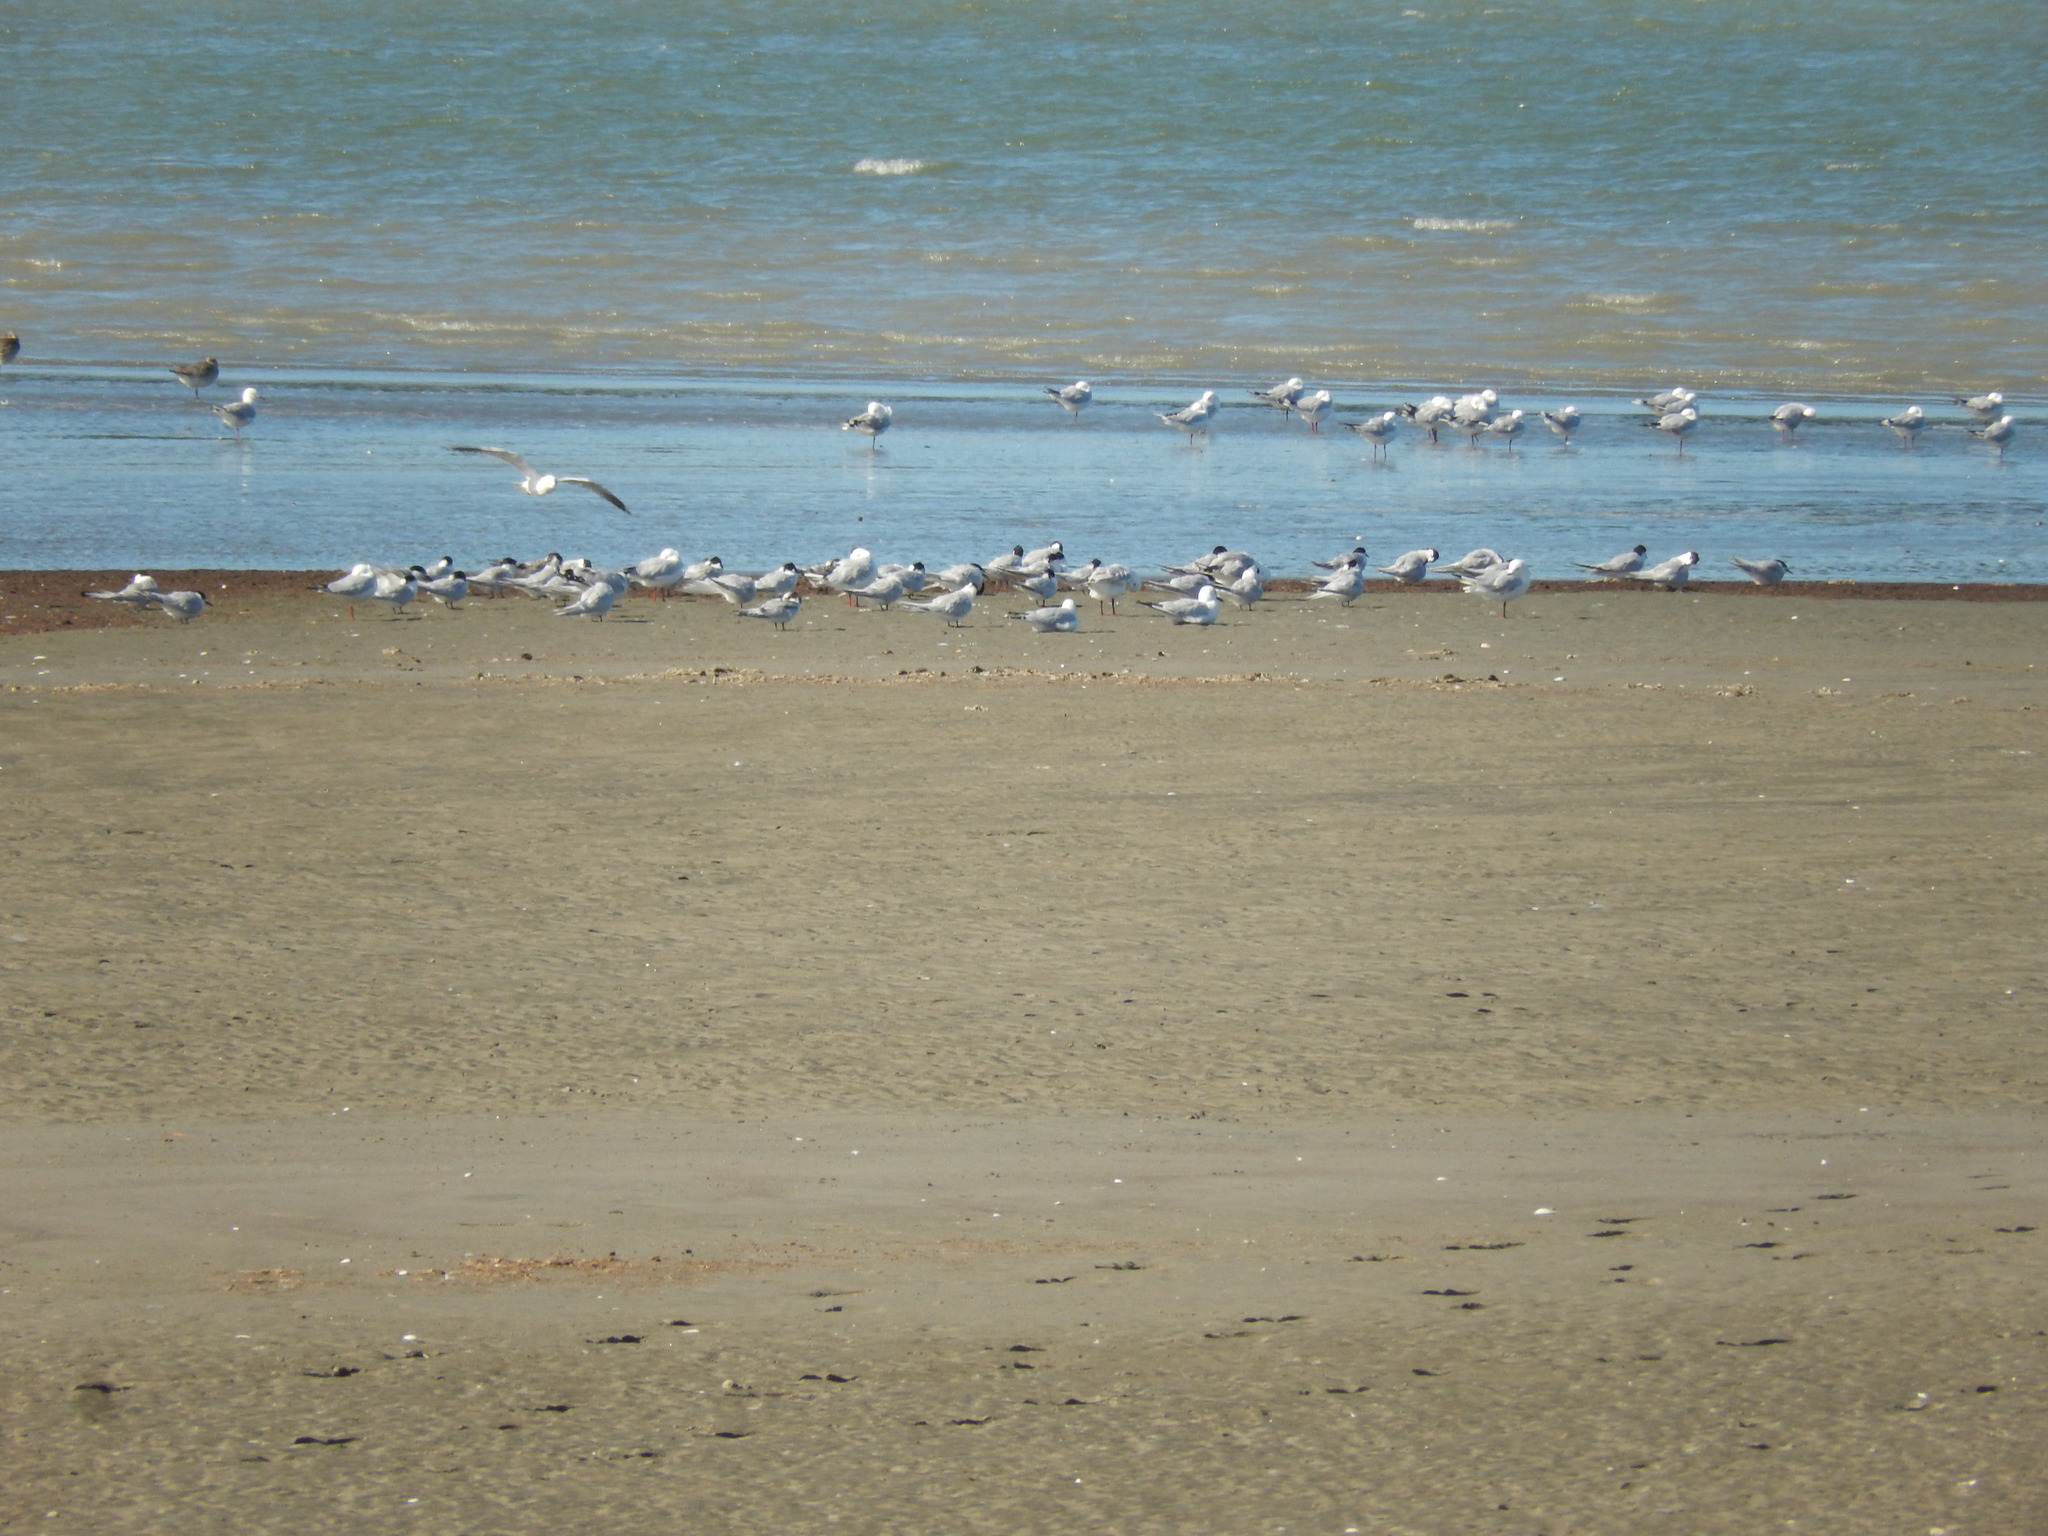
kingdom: Animalia
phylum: Chordata
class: Aves
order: Charadriiformes
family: Laridae
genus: Sterna
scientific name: Sterna striata
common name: White-fronted tern
